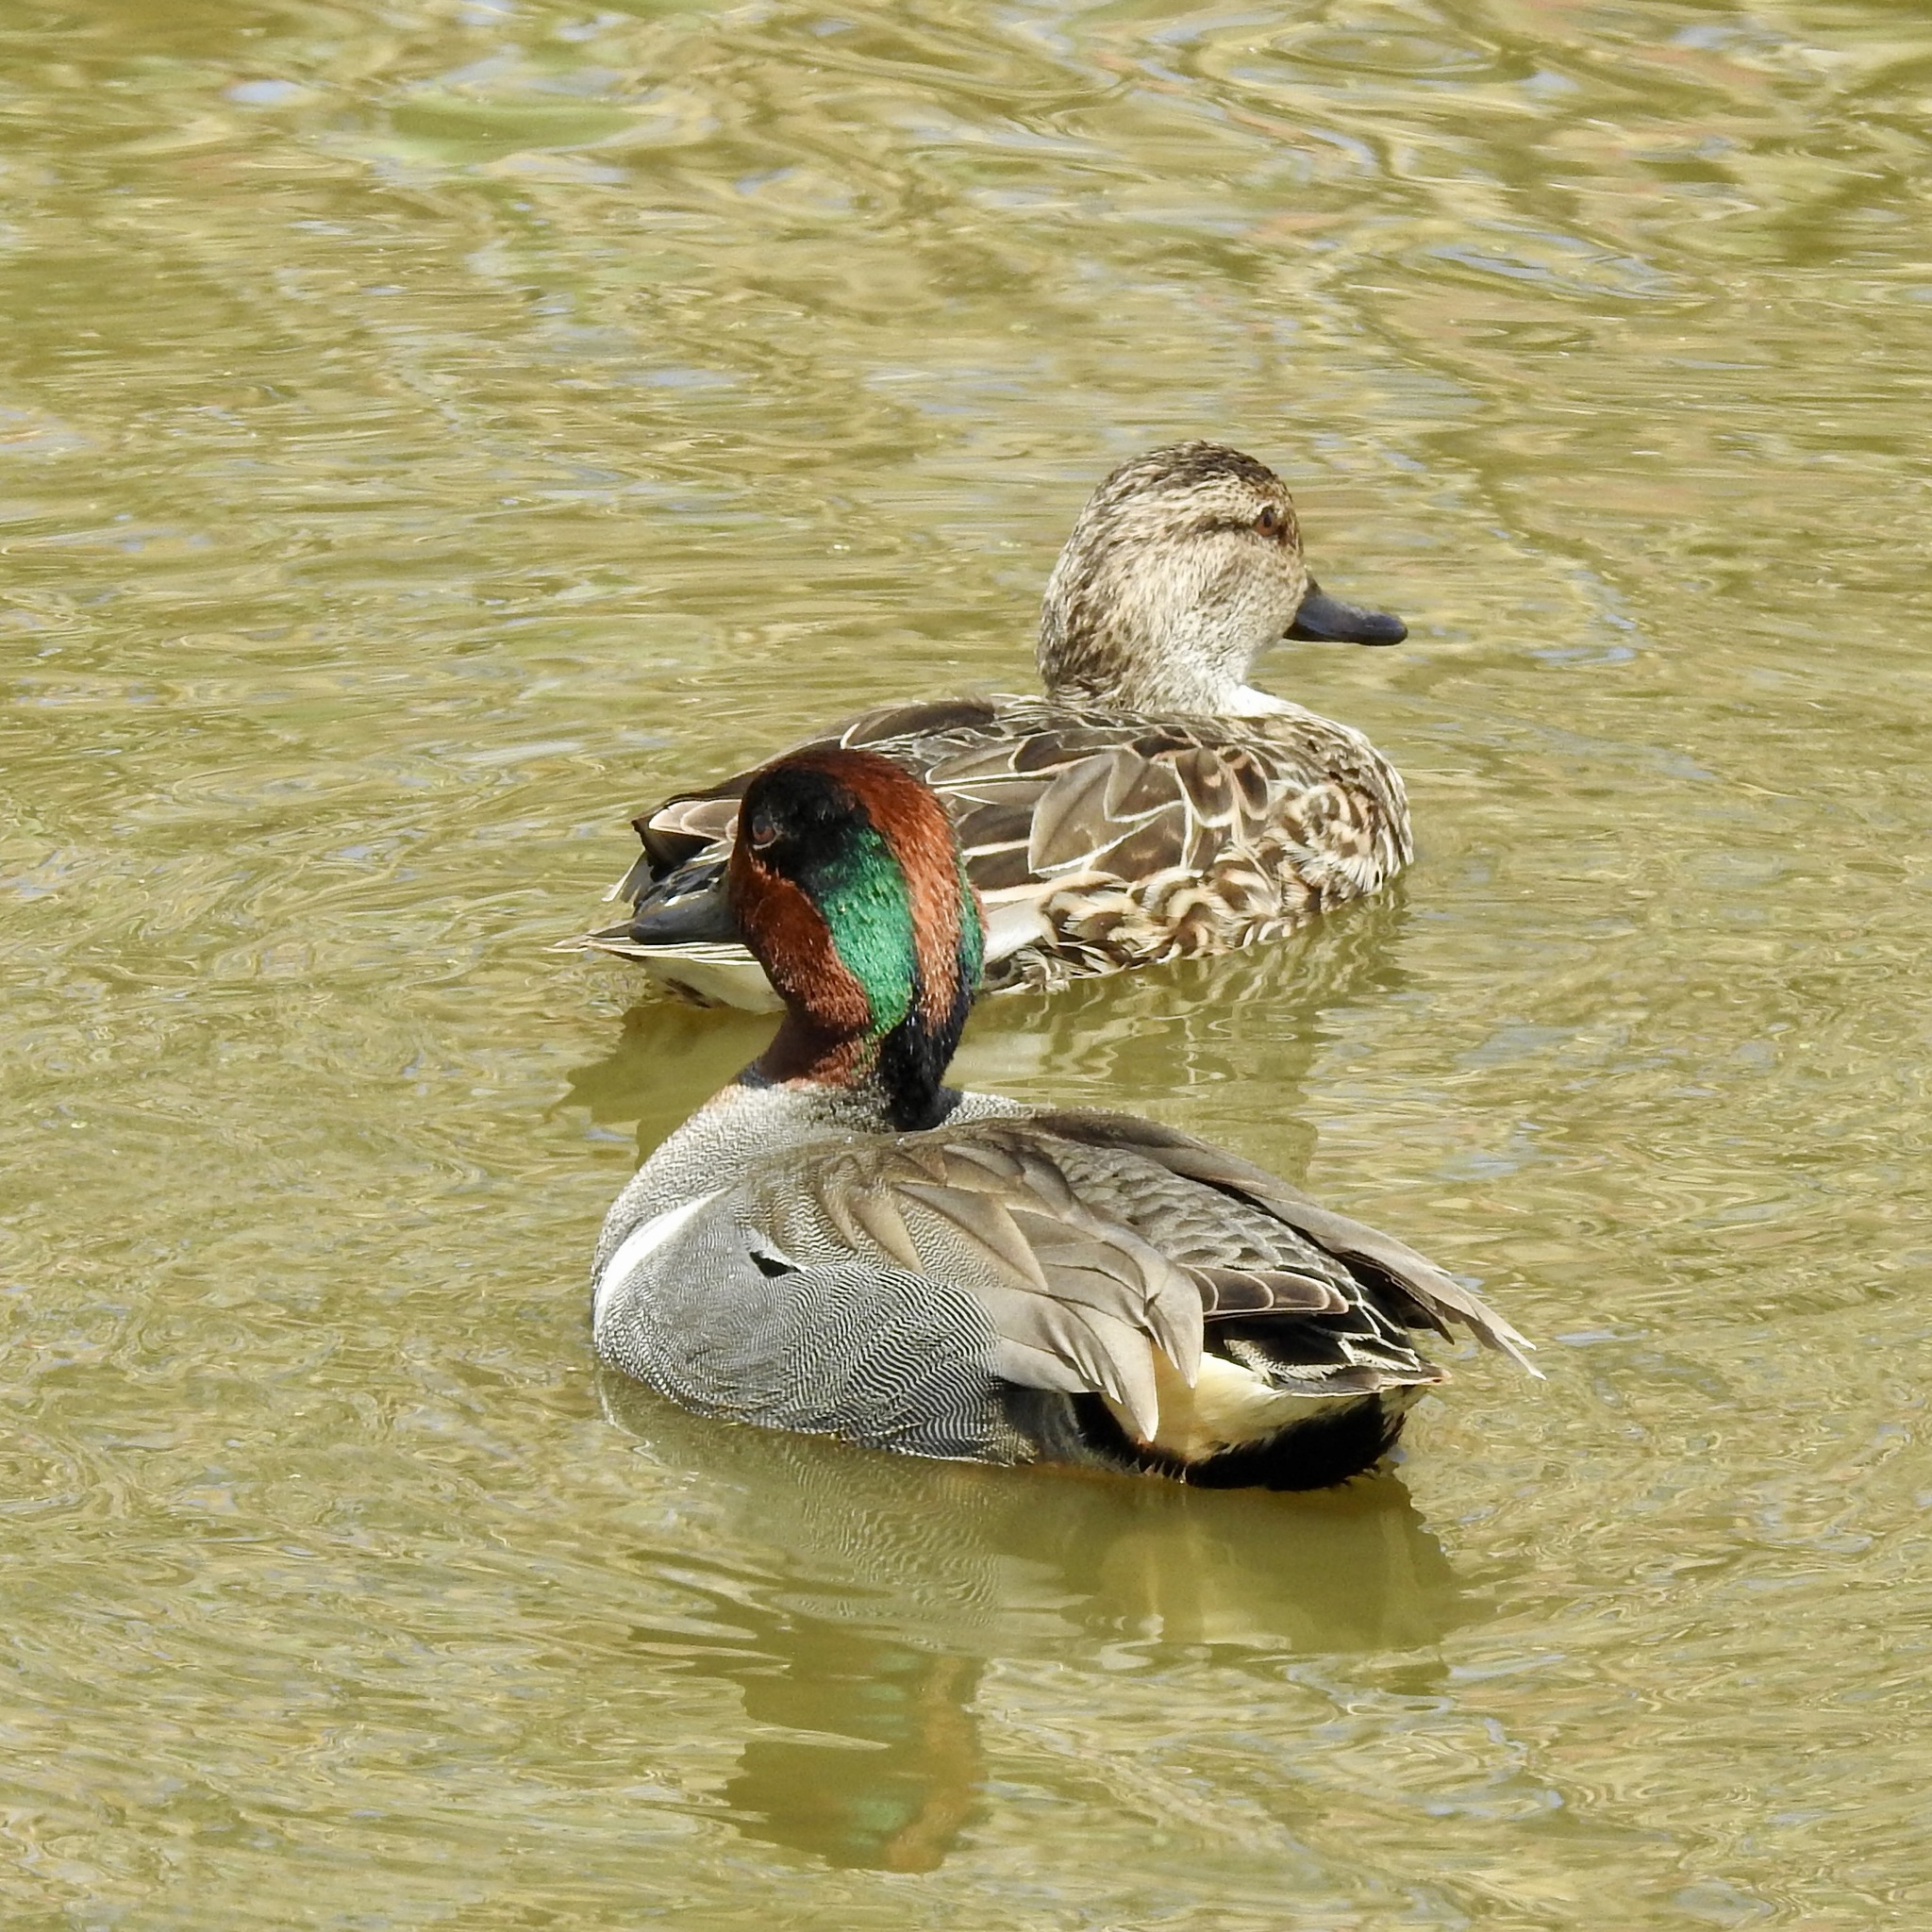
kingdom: Animalia
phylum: Chordata
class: Aves
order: Anseriformes
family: Anatidae
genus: Anas
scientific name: Anas crecca
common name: Eurasian teal
